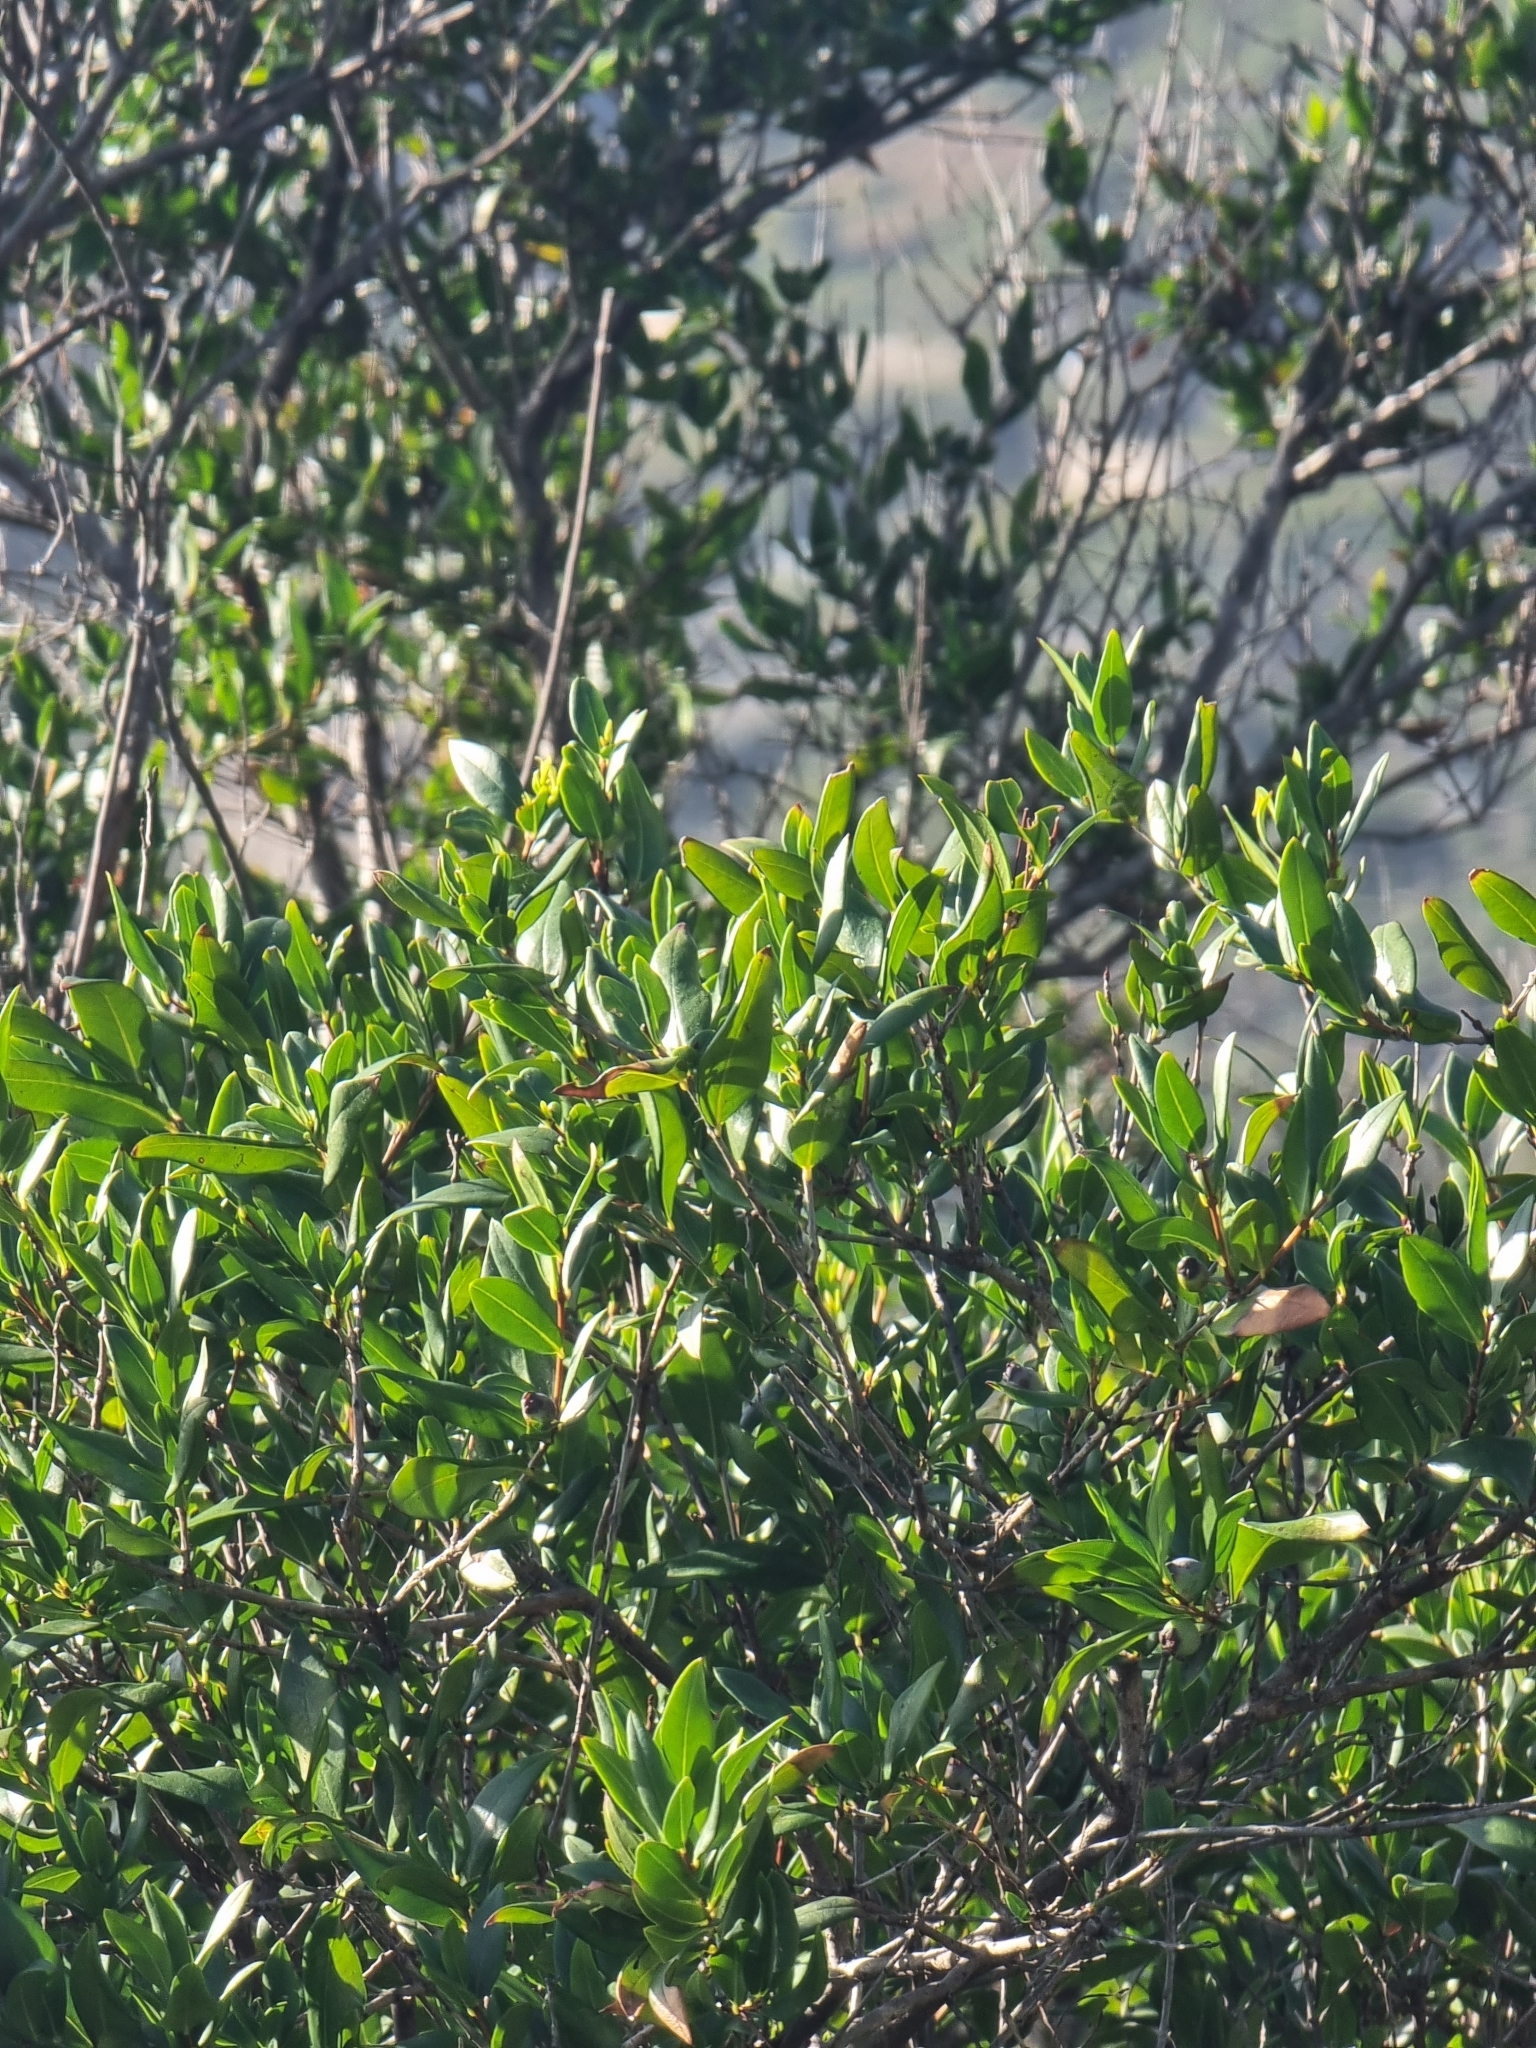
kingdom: Plantae
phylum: Tracheophyta
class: Magnoliopsida
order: Myrtales
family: Myrtaceae
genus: Myrtus
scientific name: Myrtus communis
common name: Myrtle
